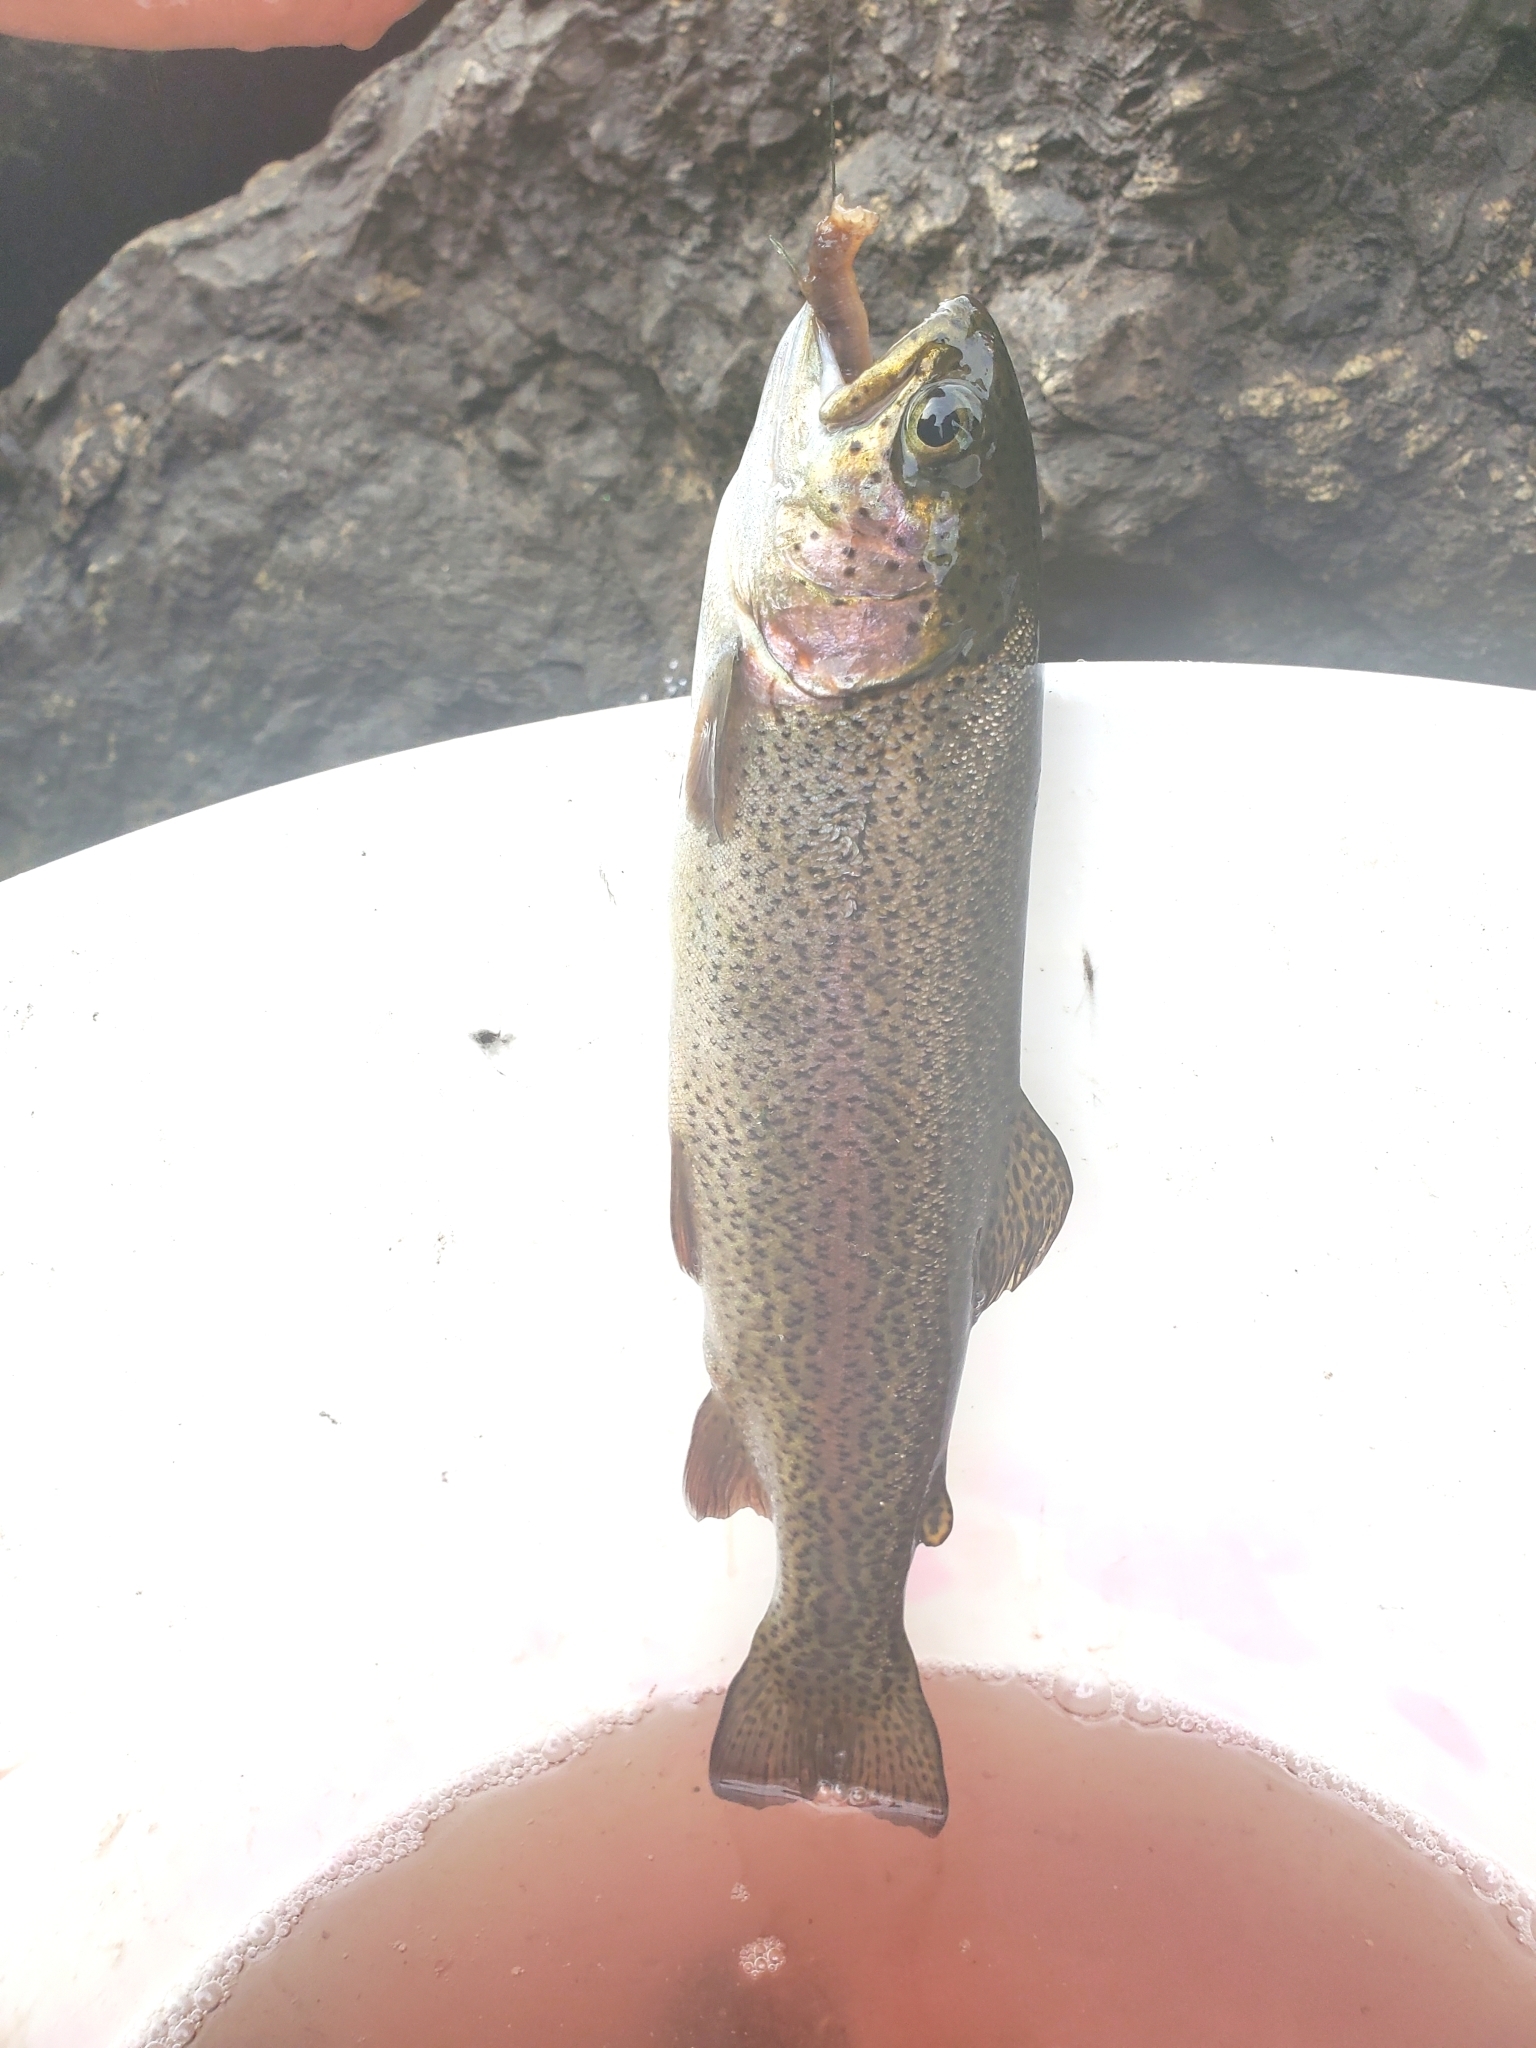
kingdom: Animalia
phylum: Chordata
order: Salmoniformes
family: Salmonidae
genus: Oncorhynchus
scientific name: Oncorhynchus mykiss
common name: Rainbow trout
